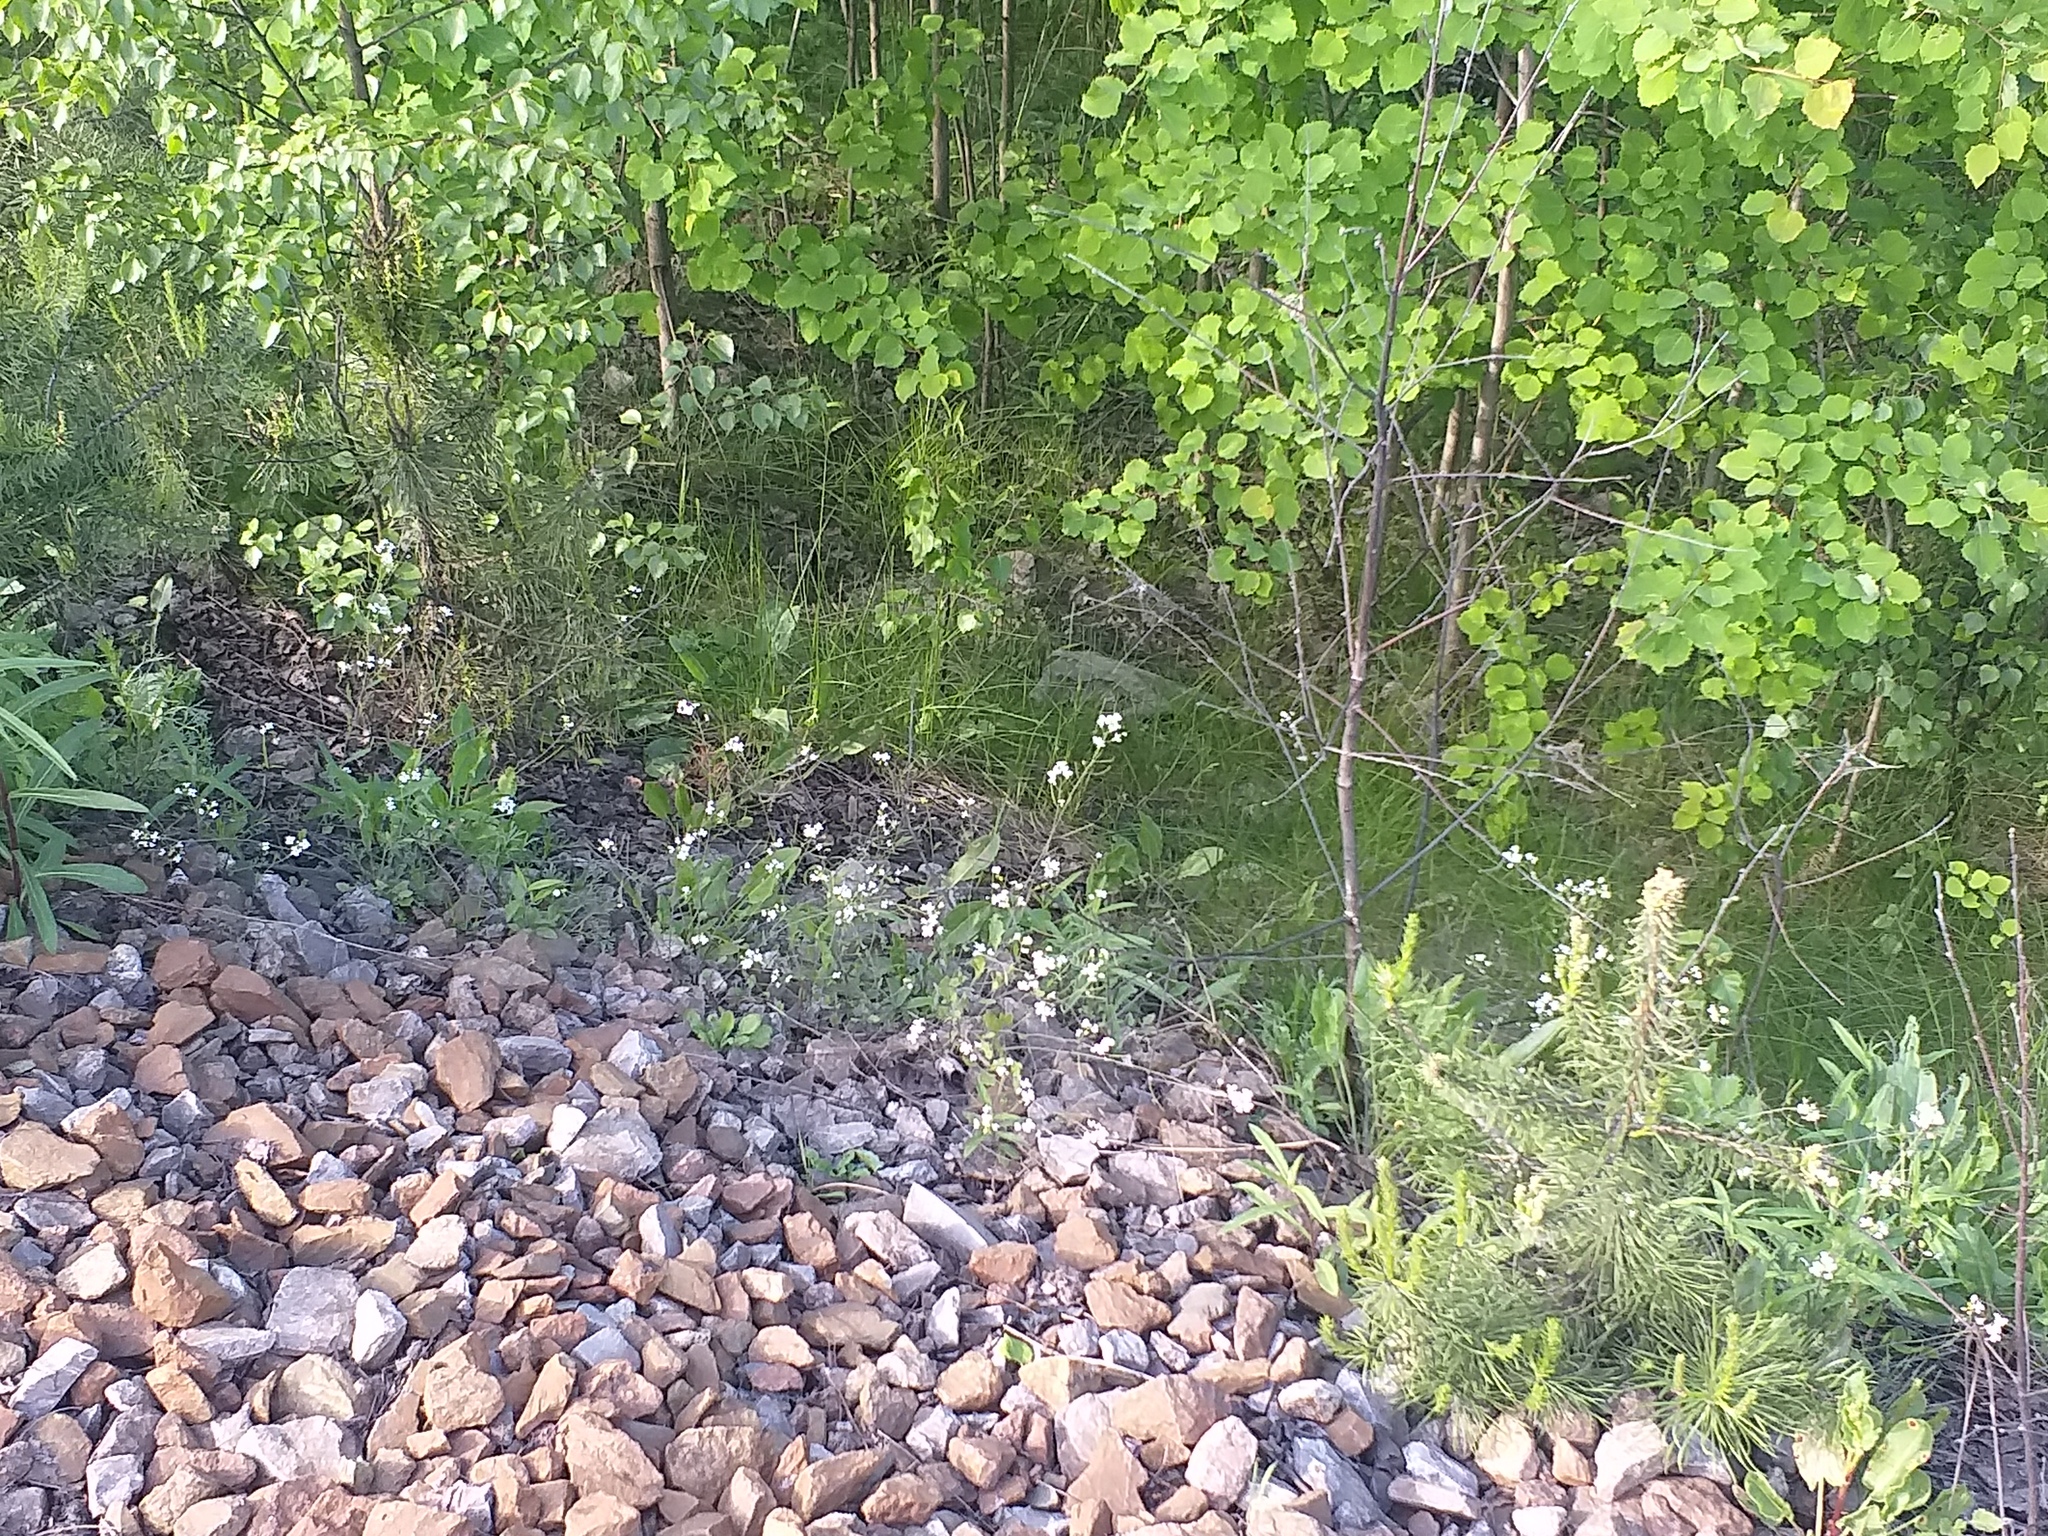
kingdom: Plantae
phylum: Tracheophyta
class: Magnoliopsida
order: Brassicales
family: Brassicaceae
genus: Arabidopsis
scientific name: Arabidopsis arenosa
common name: Sand rock-cress
